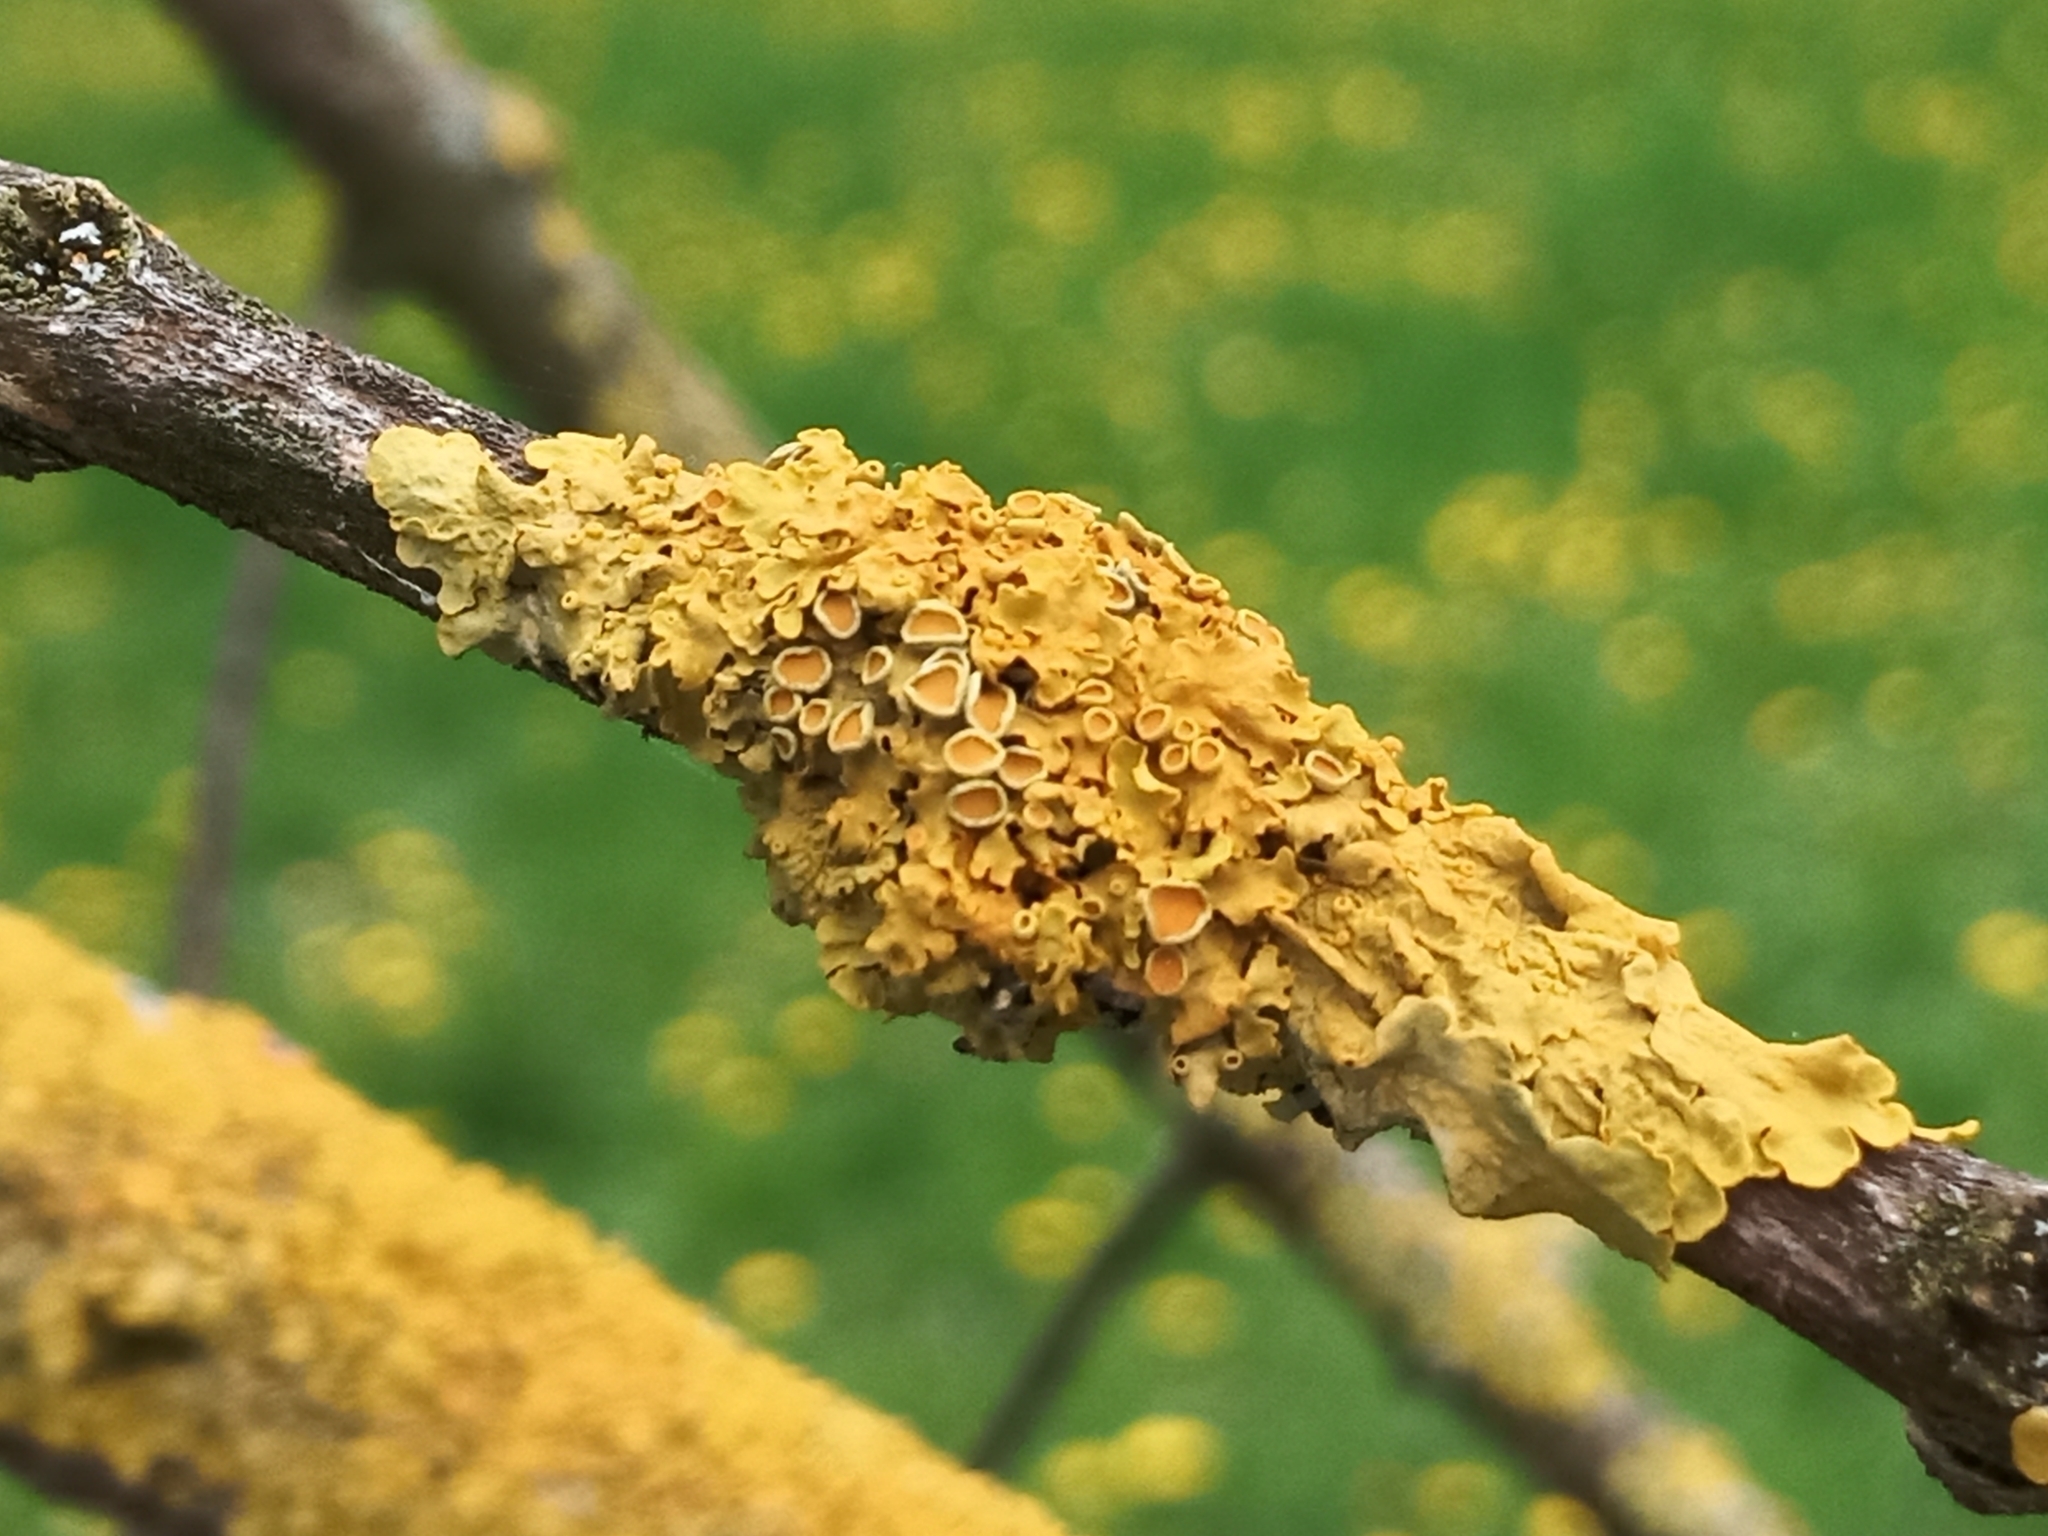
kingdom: Fungi
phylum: Ascomycota
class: Lecanoromycetes
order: Teloschistales
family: Teloschistaceae
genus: Xanthoria
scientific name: Xanthoria parietina
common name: Common orange lichen
